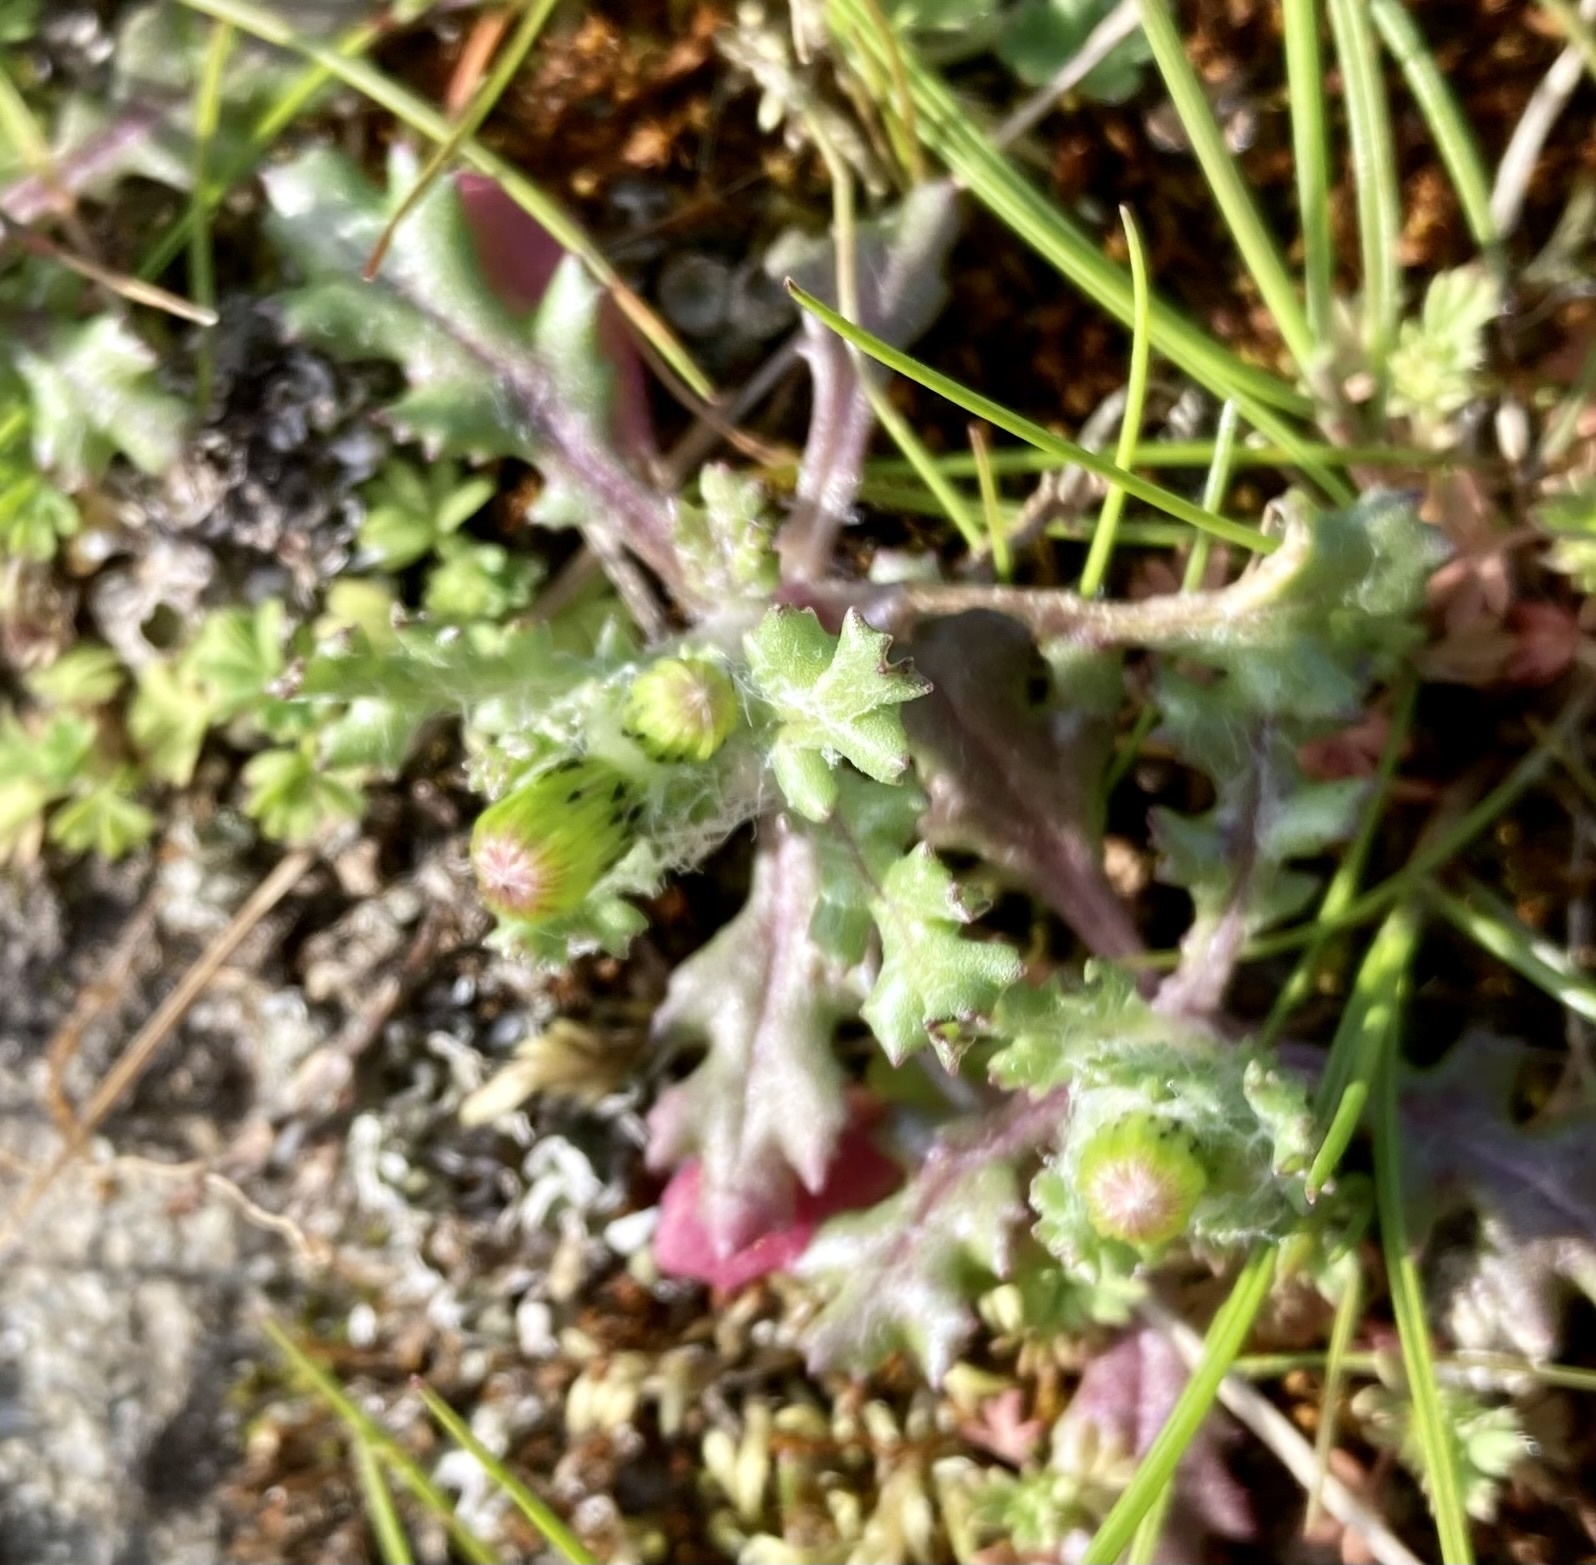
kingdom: Plantae
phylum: Tracheophyta
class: Magnoliopsida
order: Asterales
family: Asteraceae
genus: Senecio
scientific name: Senecio vulgaris
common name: Old-man-in-the-spring
